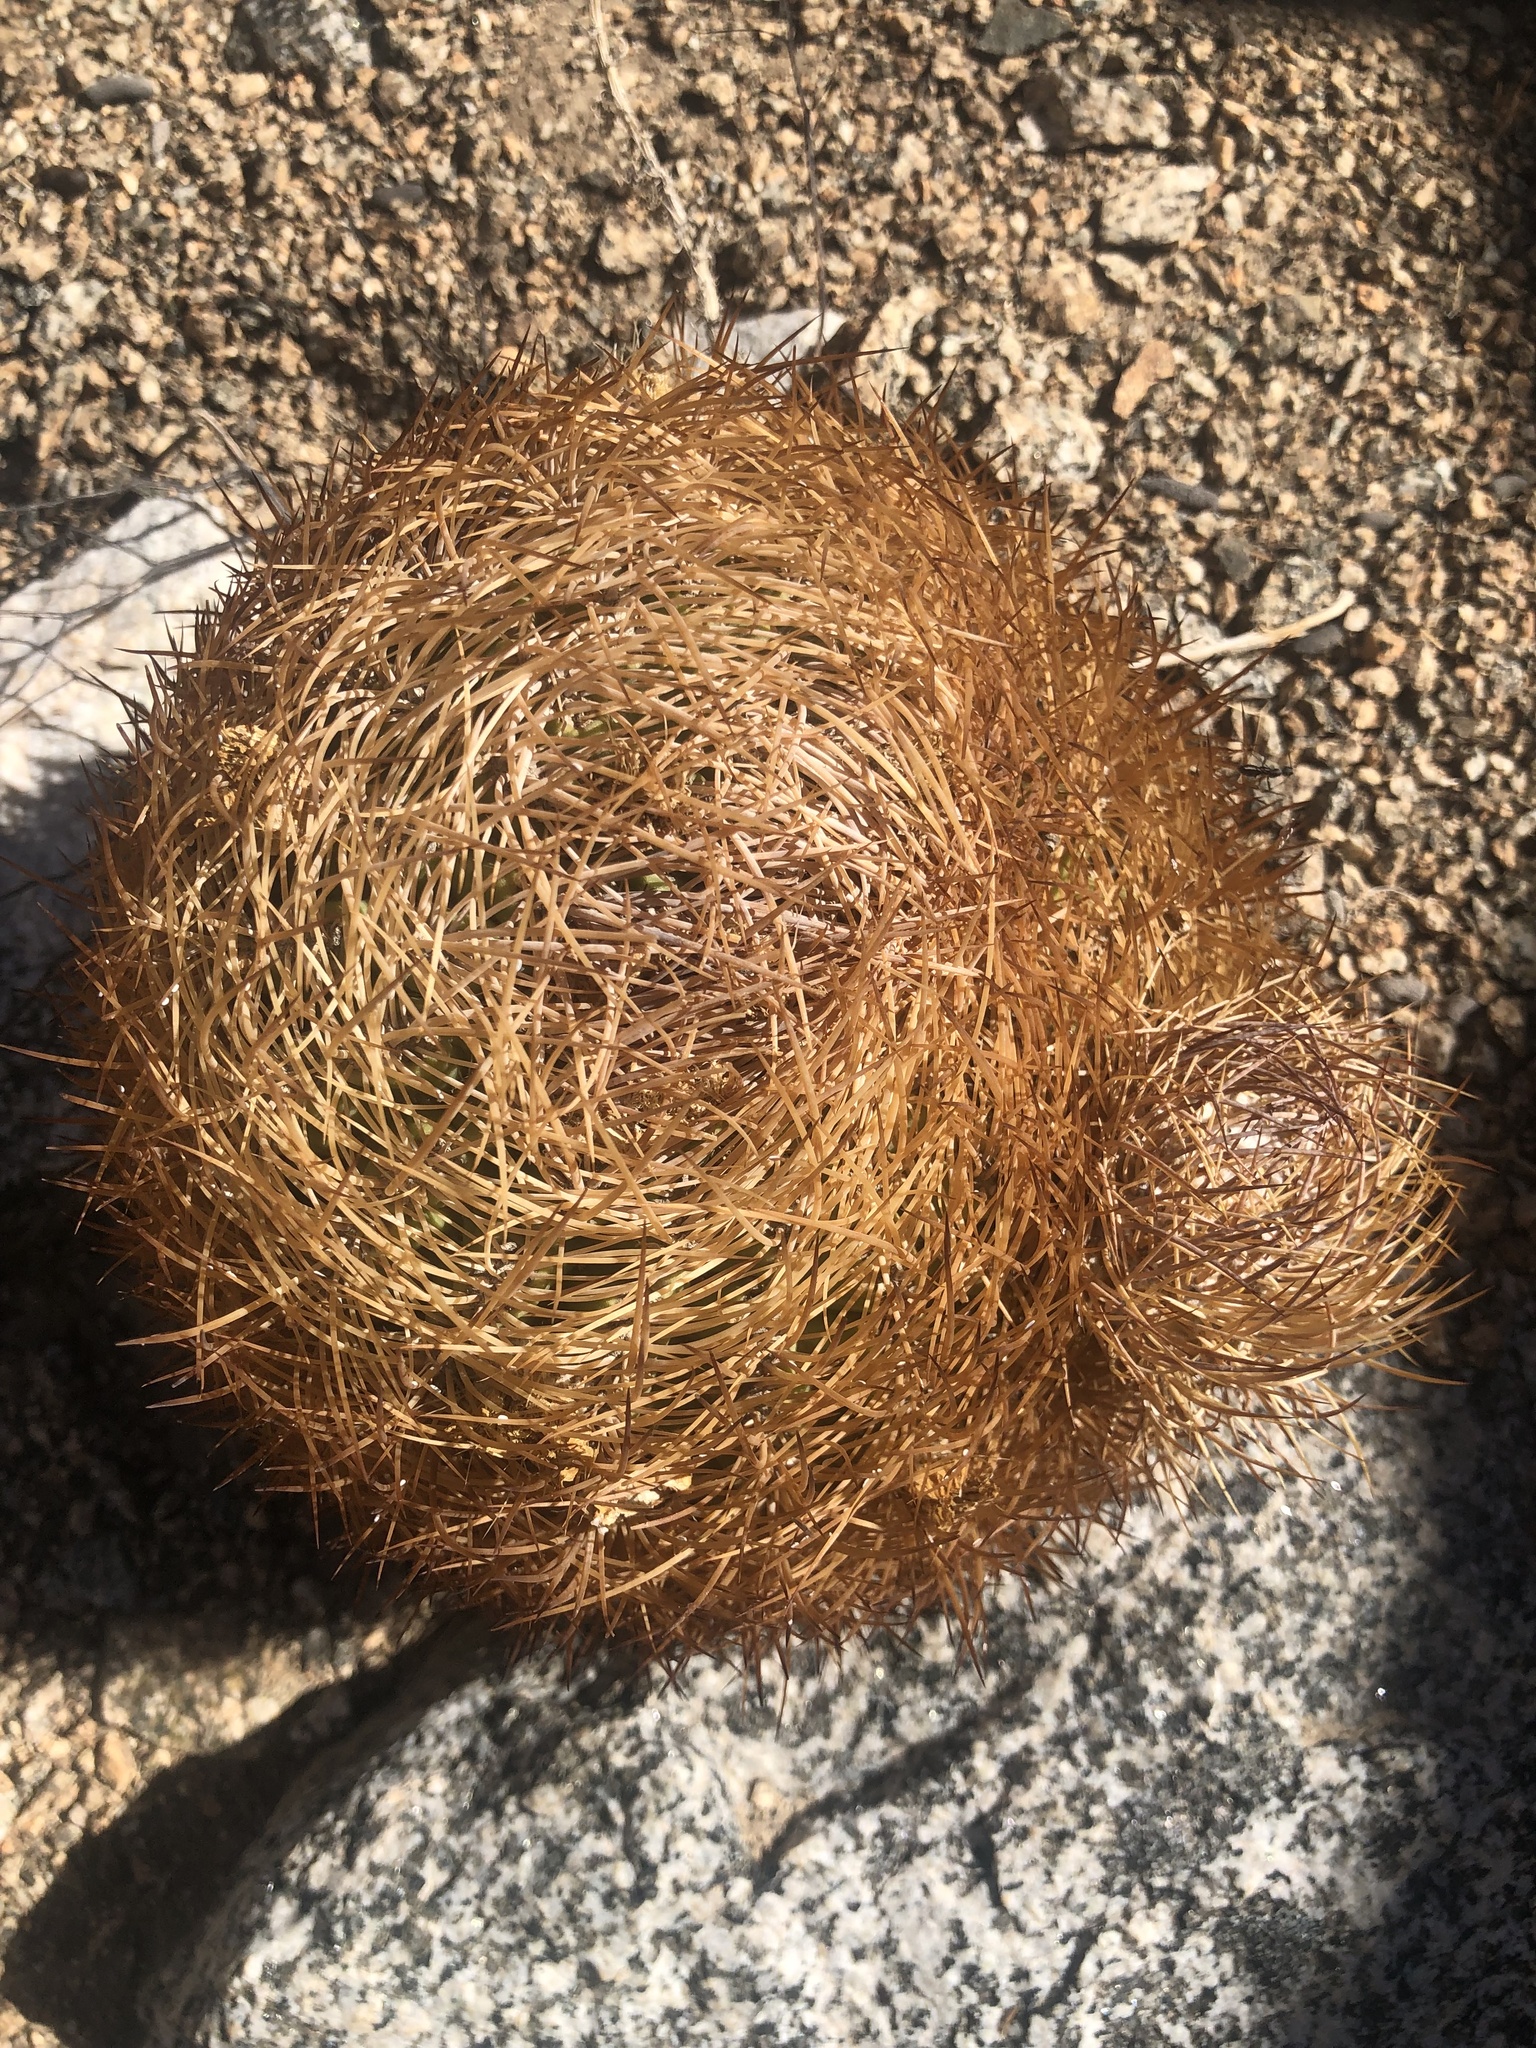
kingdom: Plantae
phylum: Tracheophyta
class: Magnoliopsida
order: Caryophyllales
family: Cactaceae
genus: Eriosyce
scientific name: Eriosyce eriosyzoides
